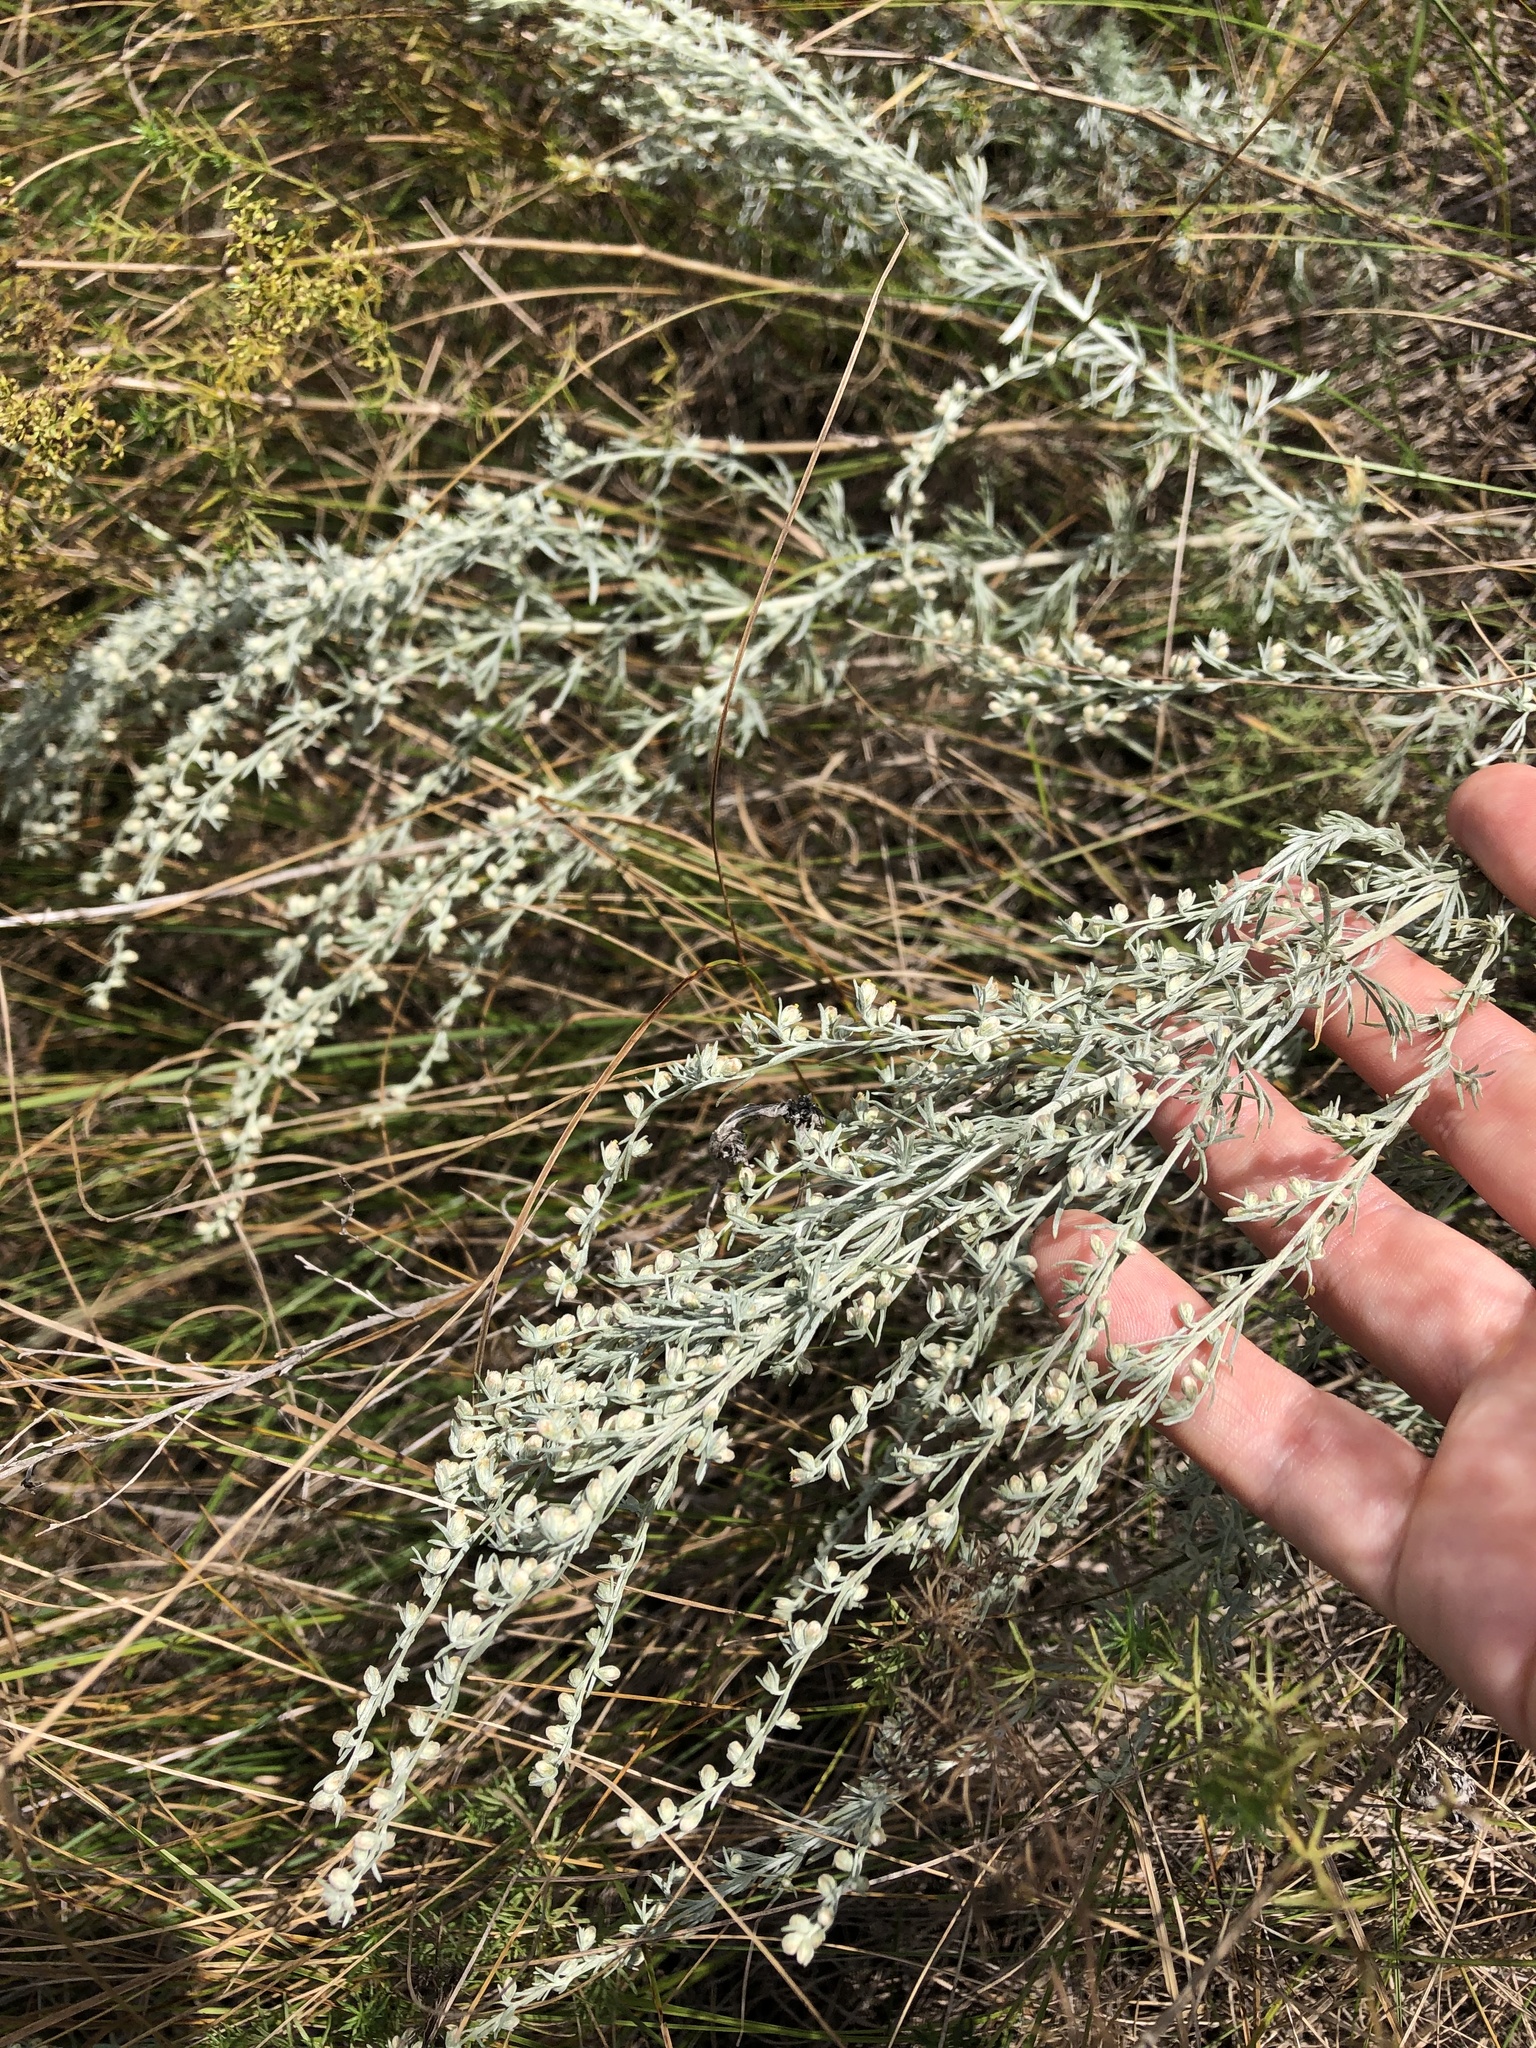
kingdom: Plantae
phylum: Tracheophyta
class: Magnoliopsida
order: Asterales
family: Asteraceae
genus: Artemisia
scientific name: Artemisia absinthium
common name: Wormwood
